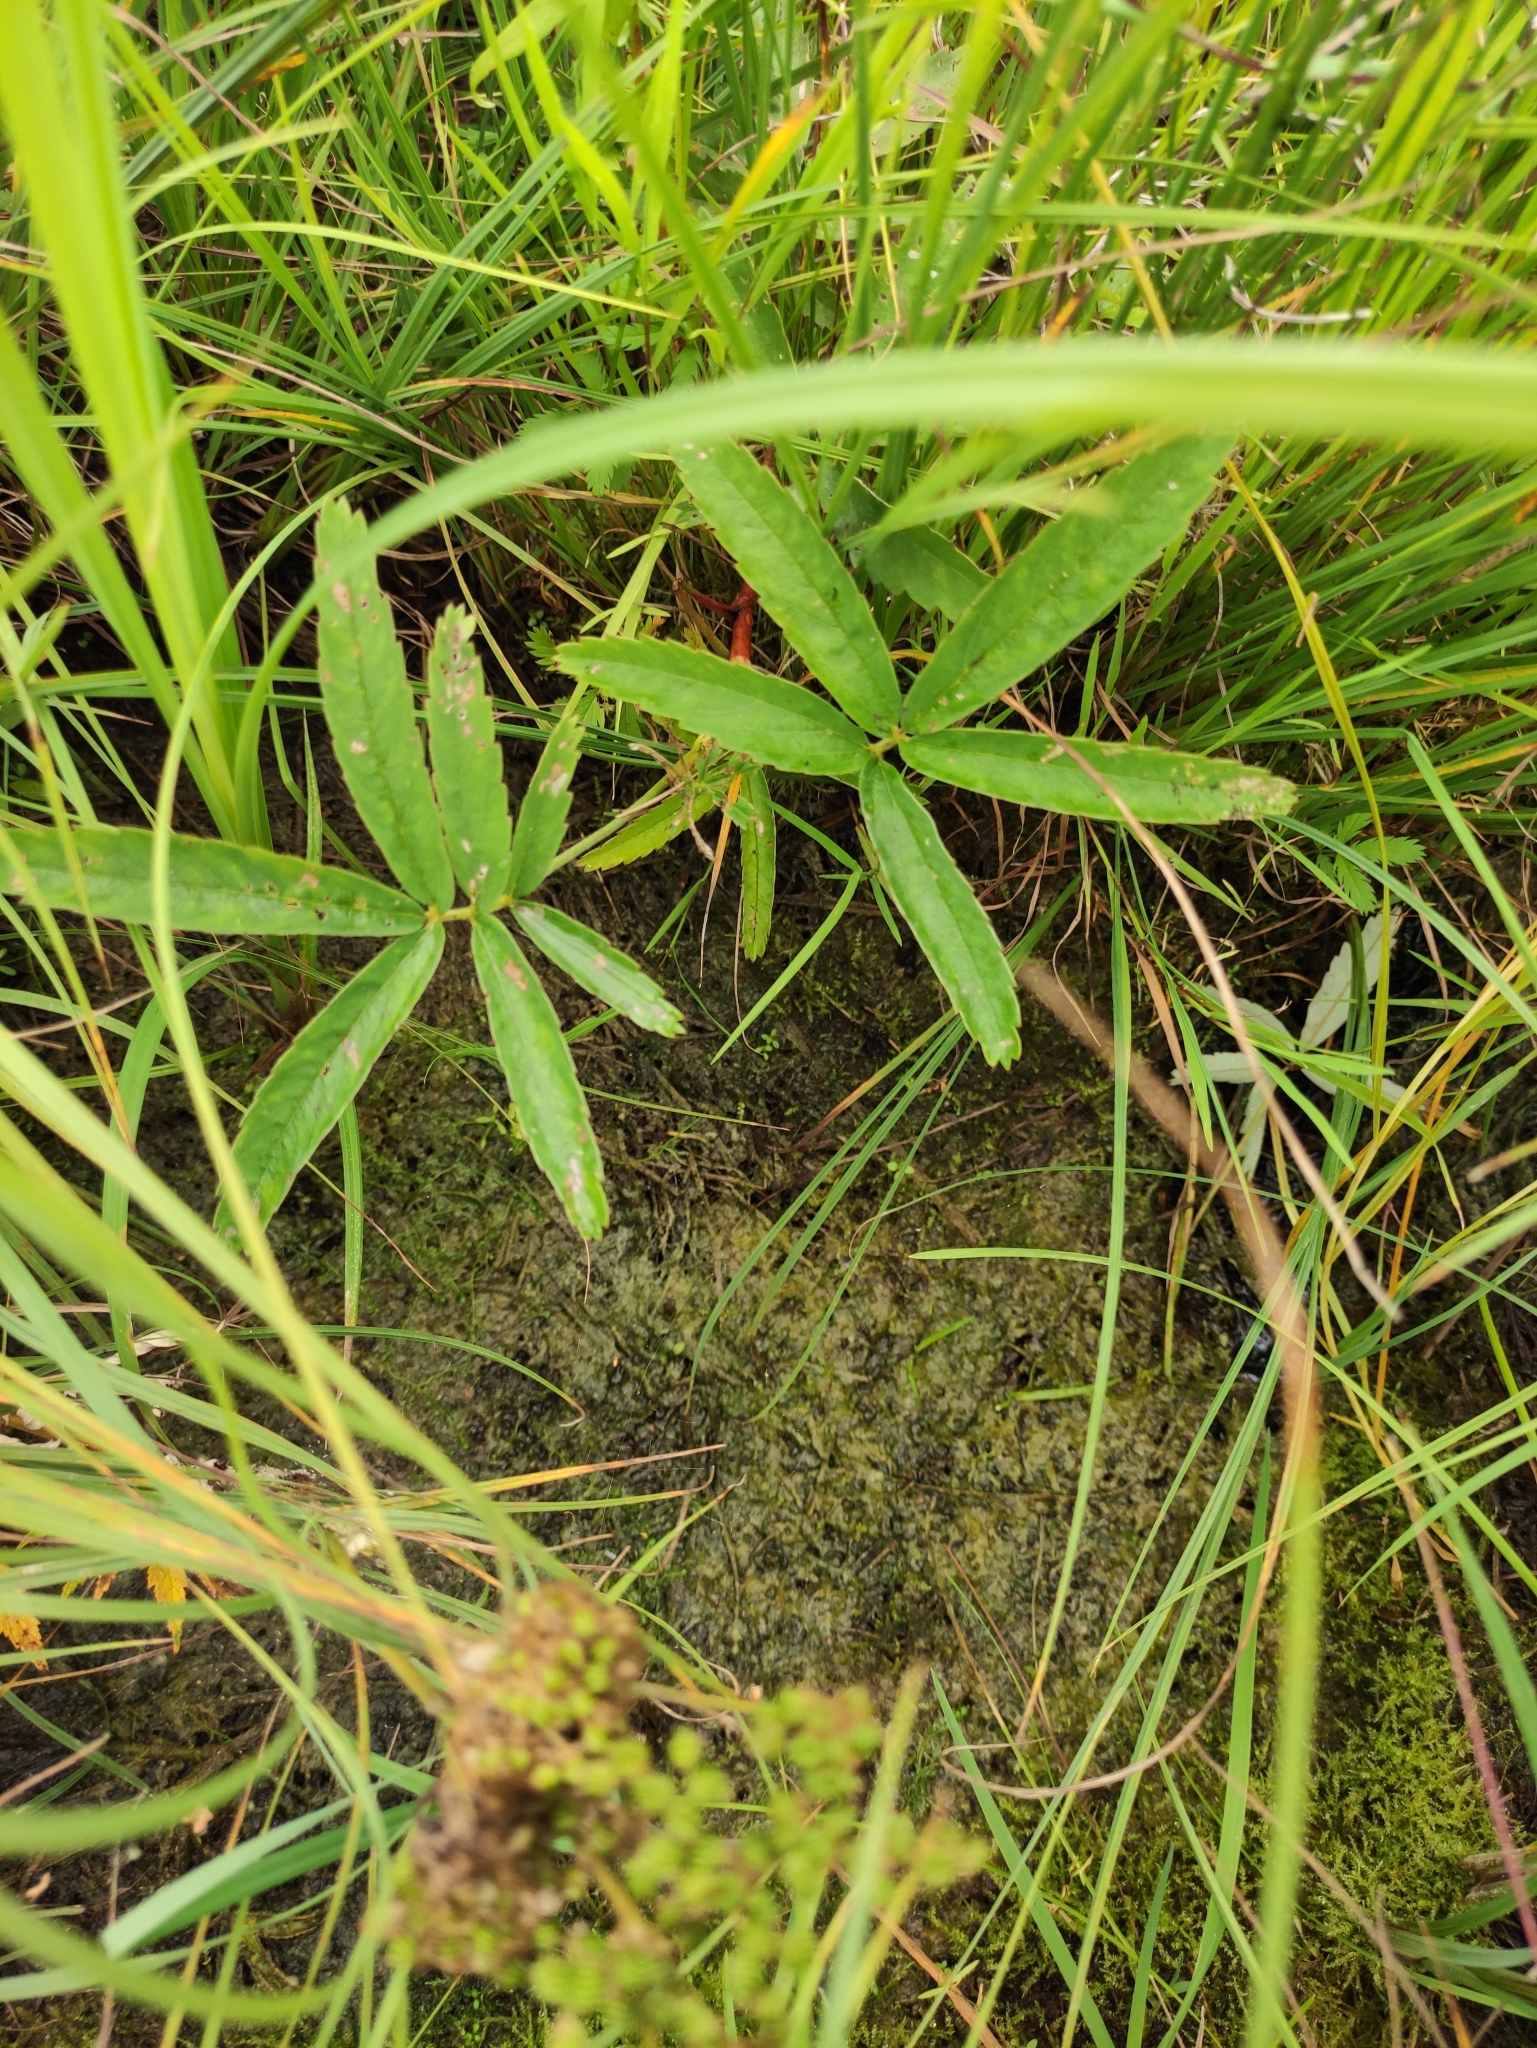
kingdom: Plantae
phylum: Tracheophyta
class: Magnoliopsida
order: Rosales
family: Rosaceae
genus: Comarum
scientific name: Comarum palustre
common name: Marsh cinquefoil
